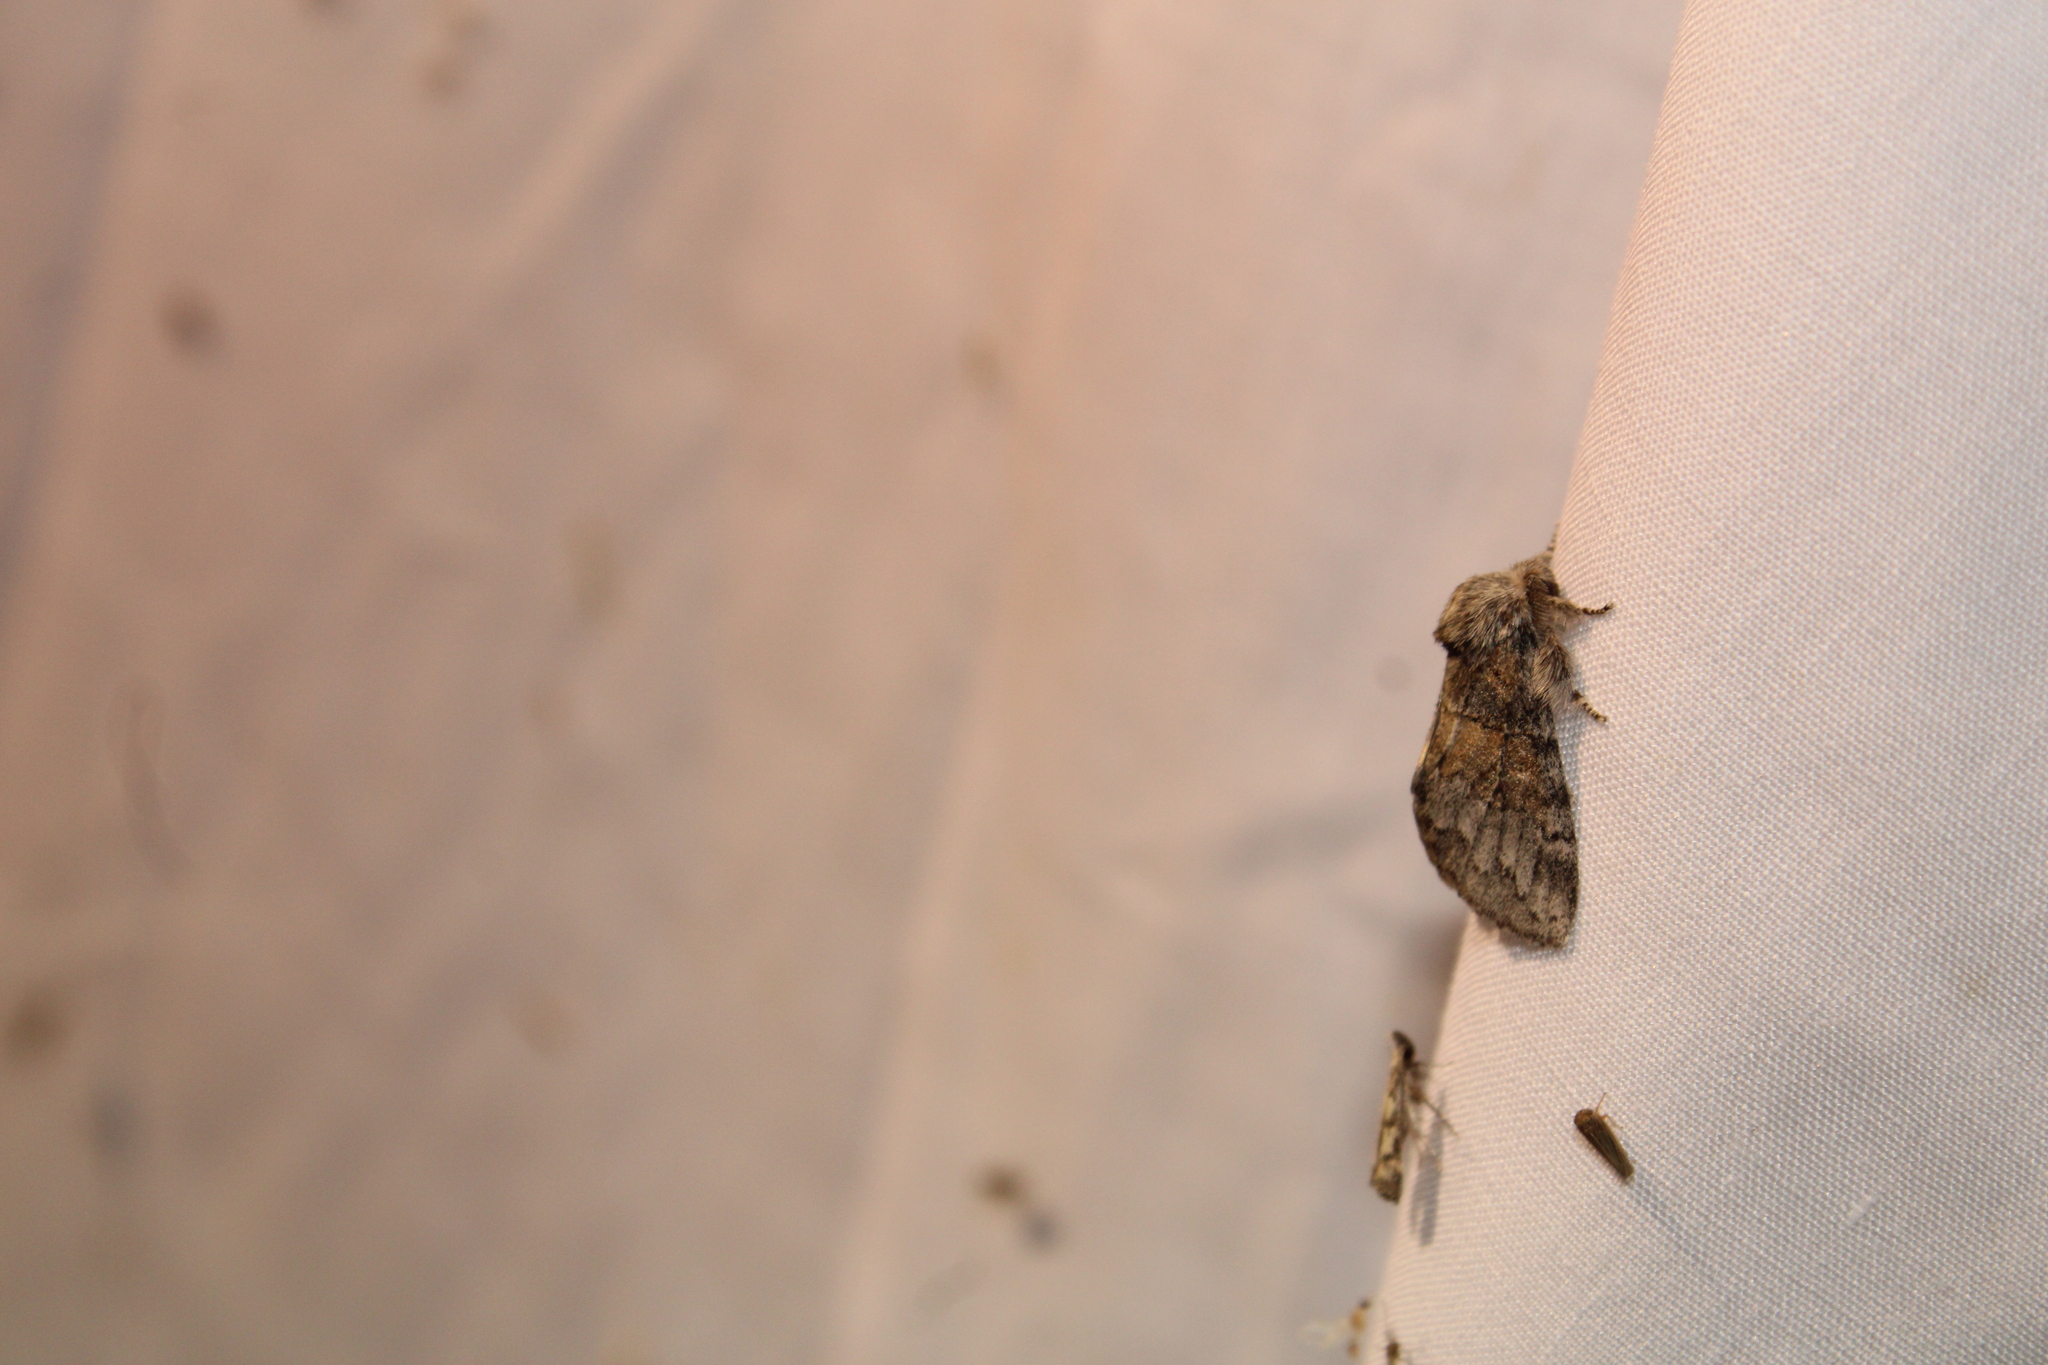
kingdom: Animalia
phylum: Arthropoda
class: Insecta
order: Lepidoptera
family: Notodontidae
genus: Gluphisia
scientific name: Gluphisia septentrionis
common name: Common gluphisia
